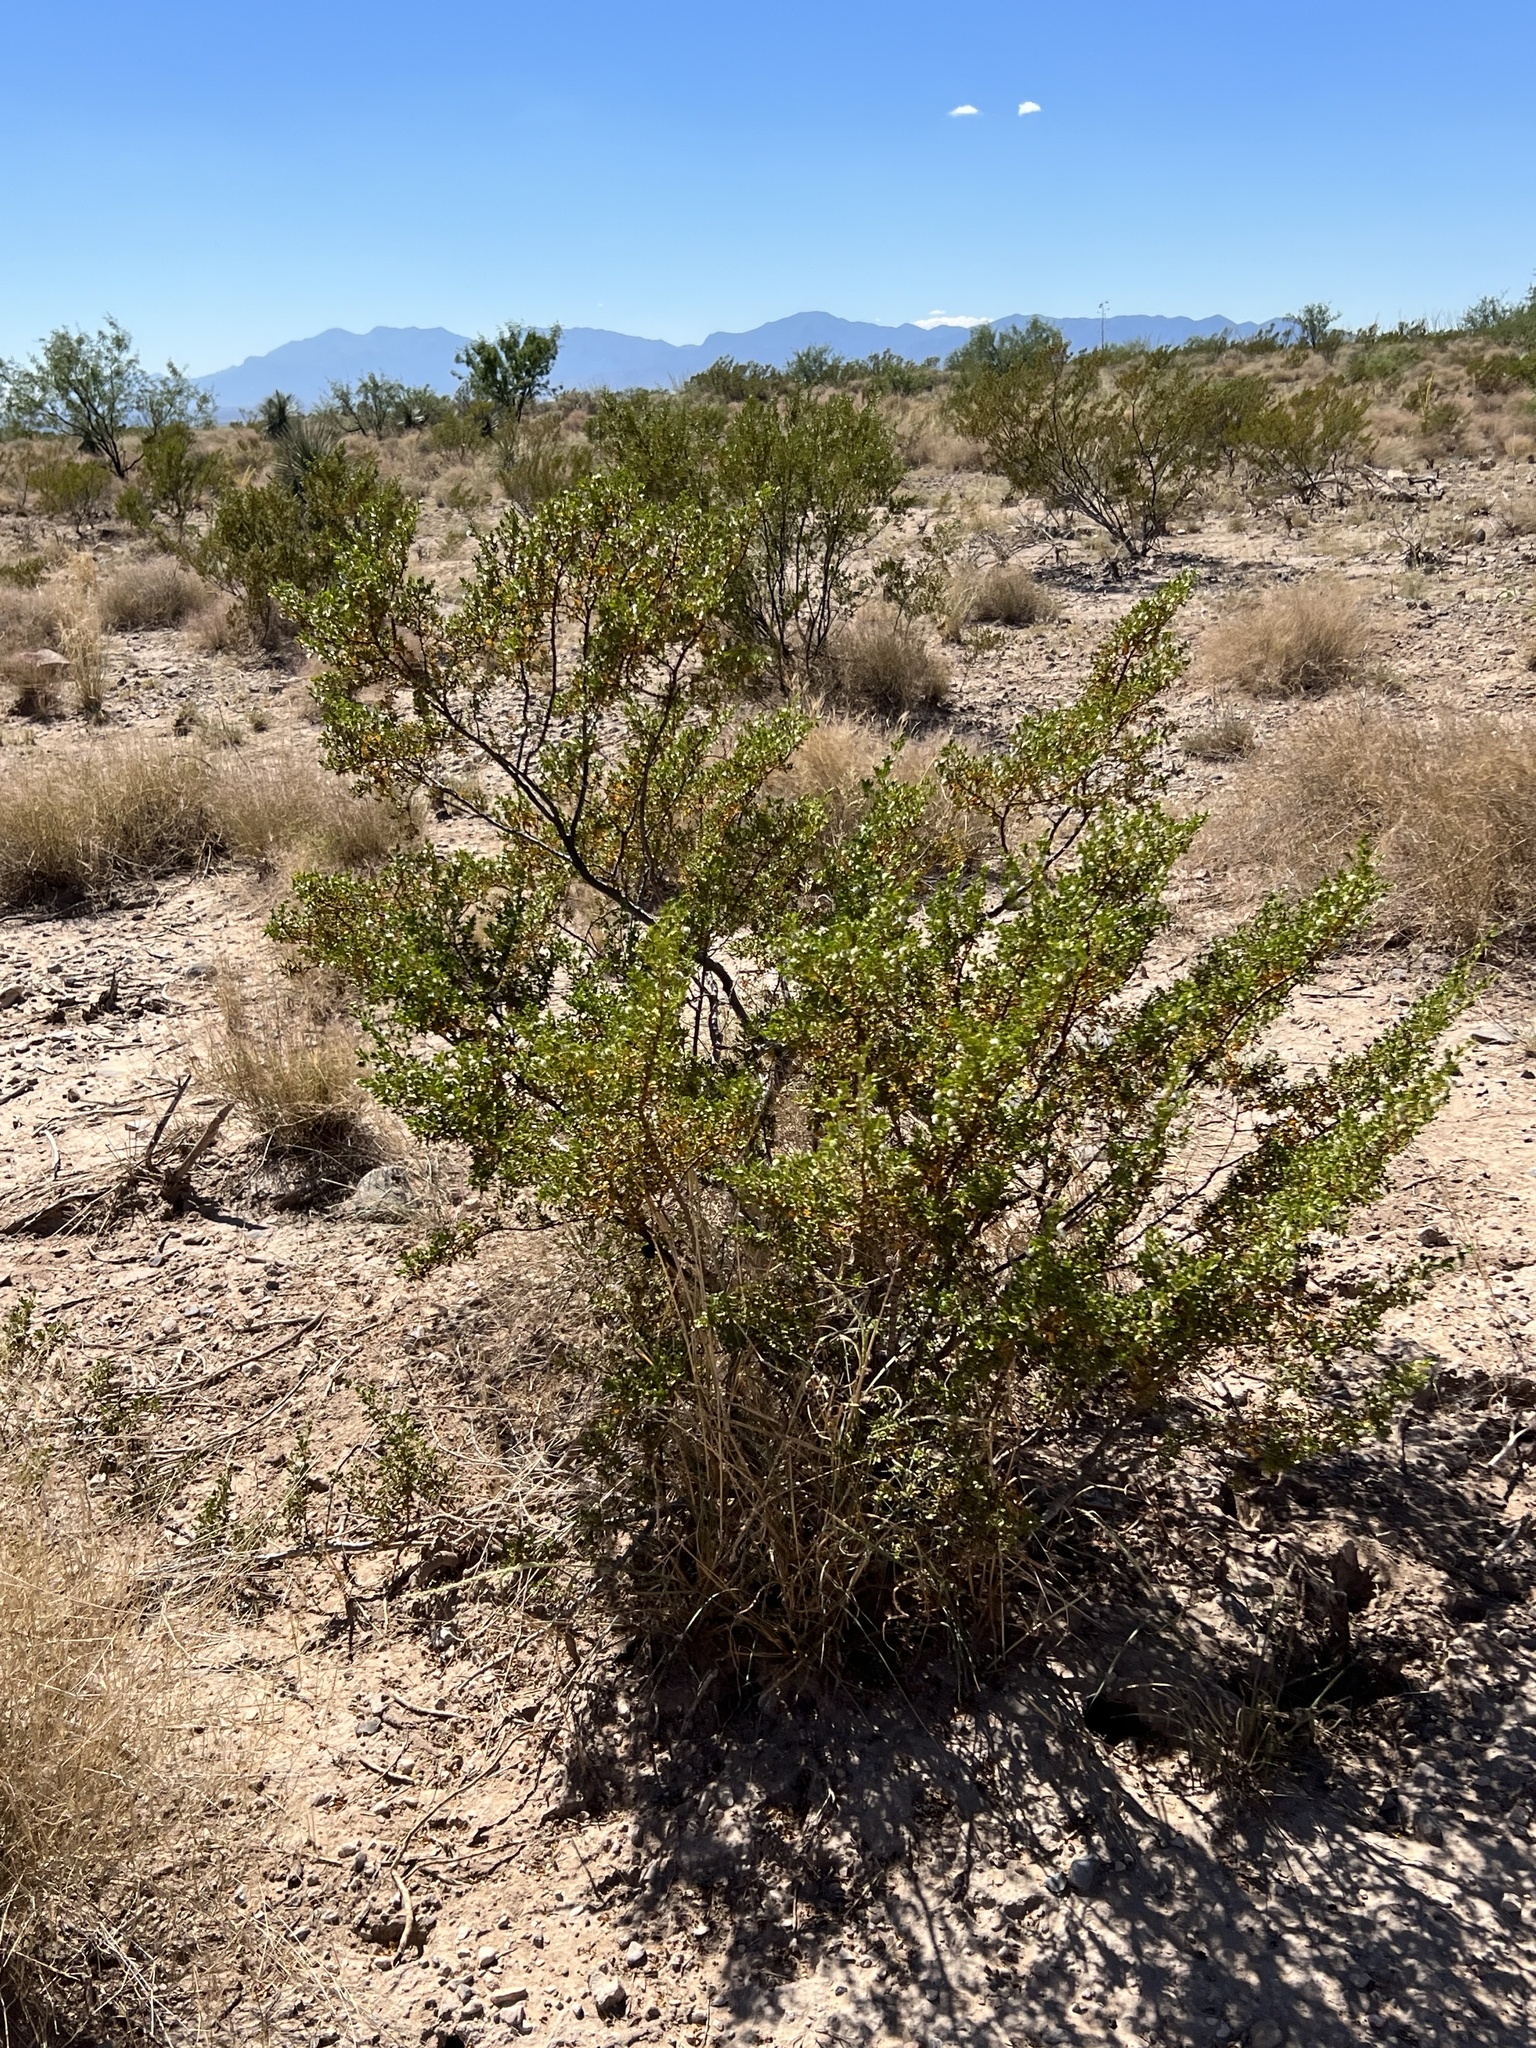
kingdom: Plantae
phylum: Tracheophyta
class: Magnoliopsida
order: Zygophyllales
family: Zygophyllaceae
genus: Larrea
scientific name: Larrea tridentata
